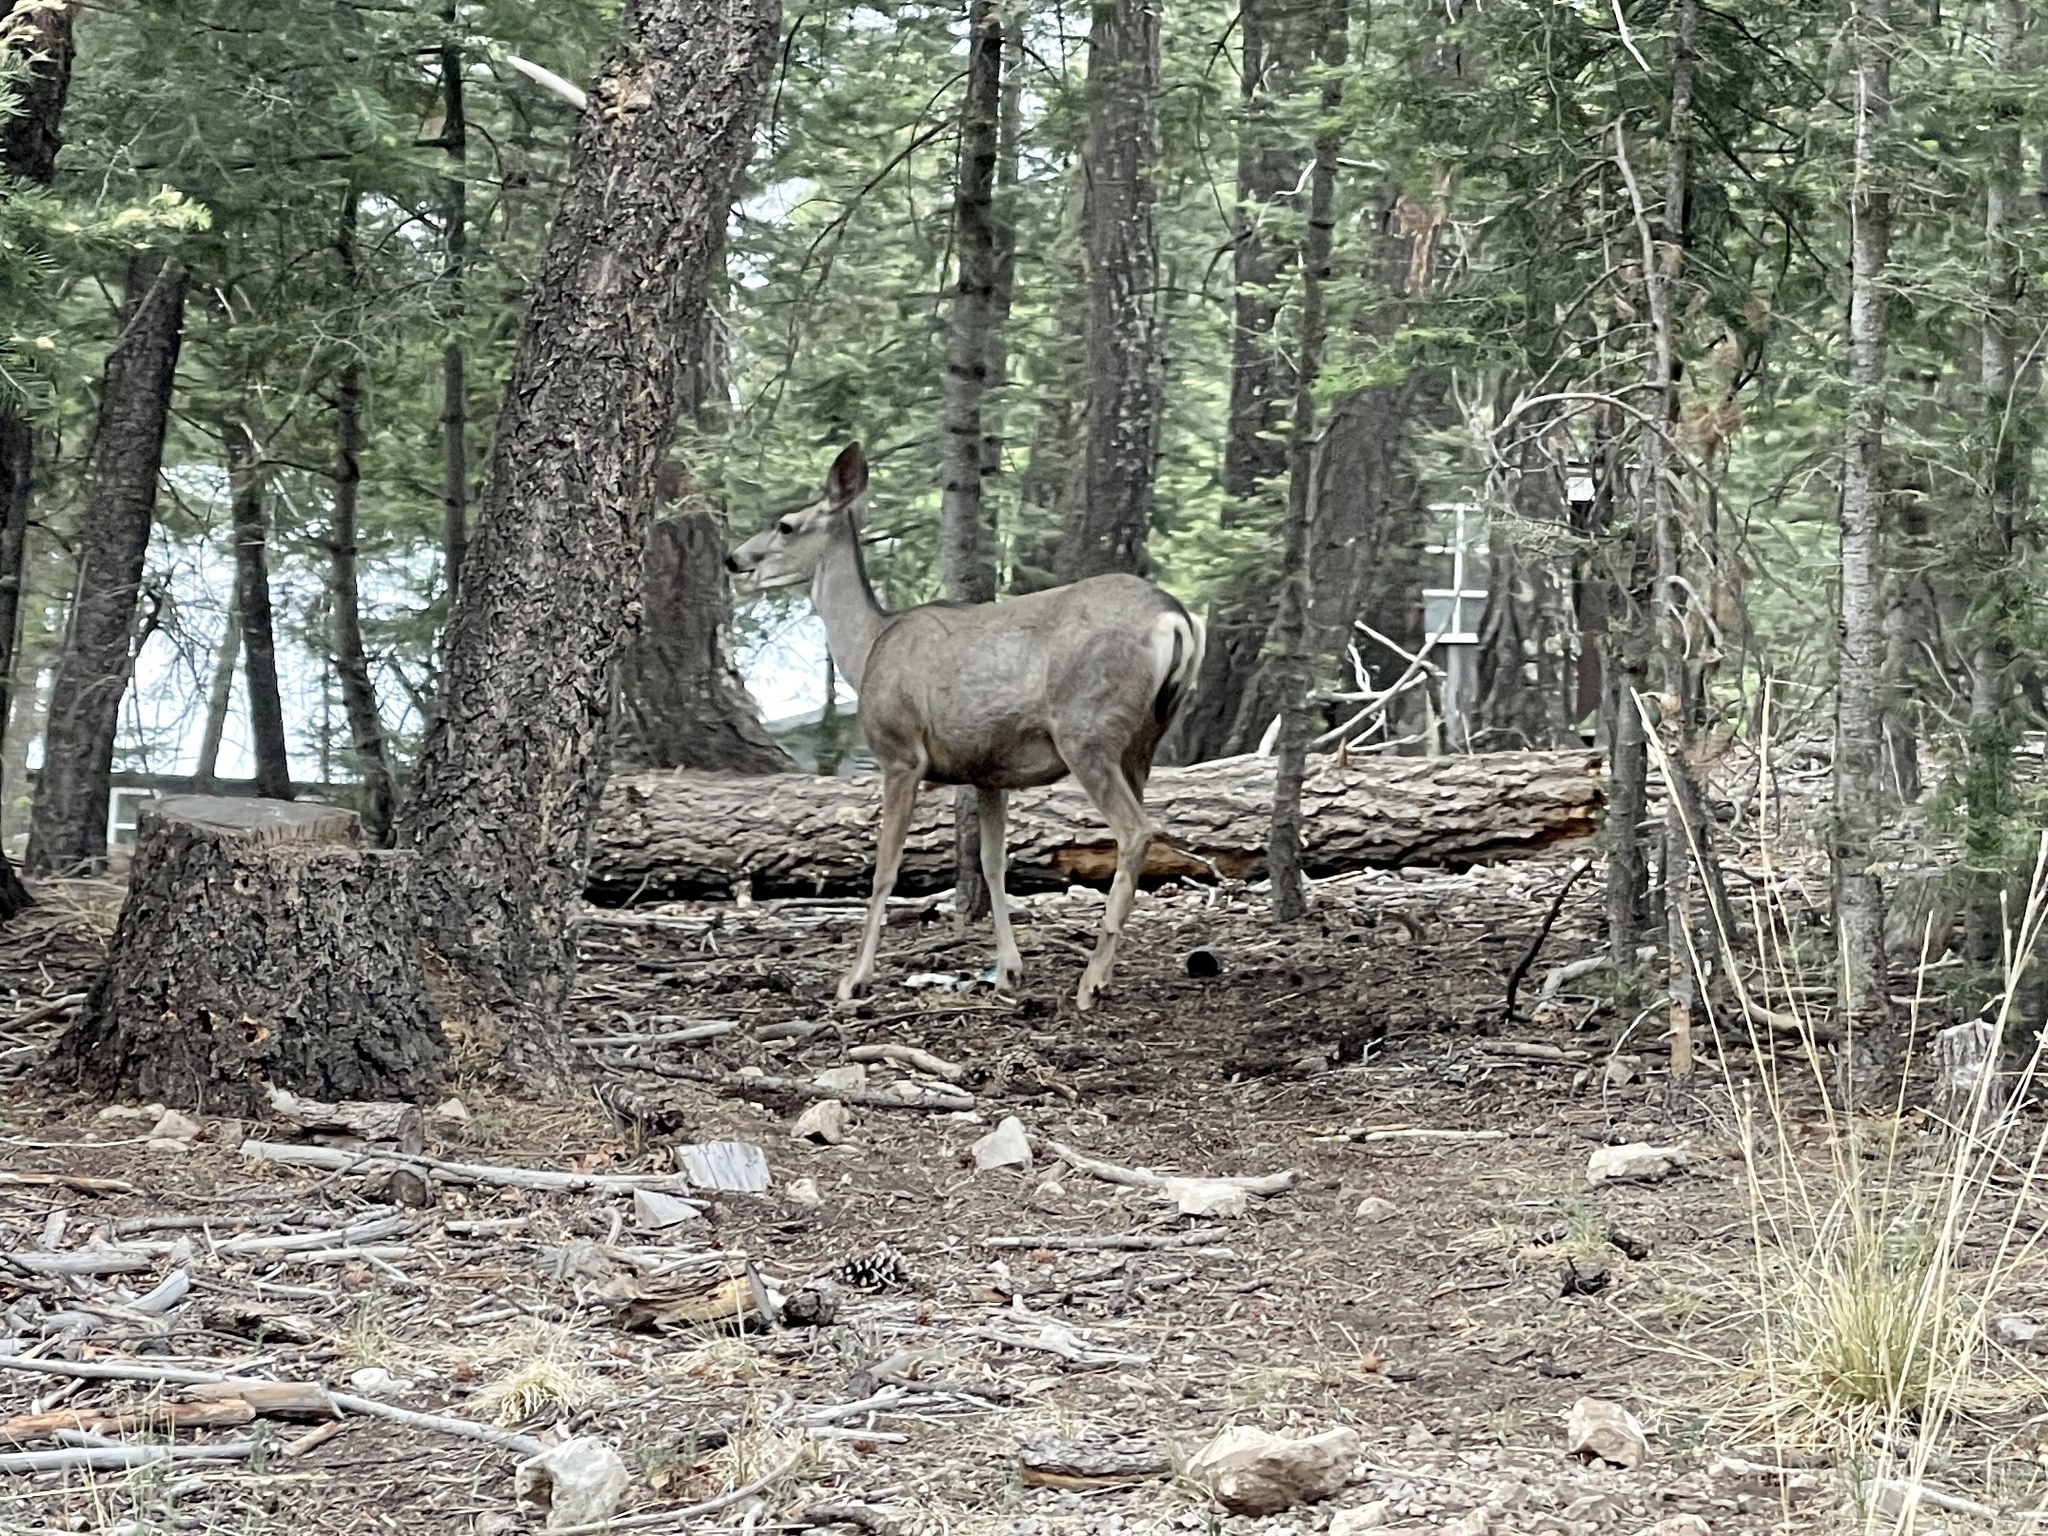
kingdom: Animalia
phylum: Chordata
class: Mammalia
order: Artiodactyla
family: Cervidae
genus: Odocoileus
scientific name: Odocoileus hemionus
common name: Mule deer
